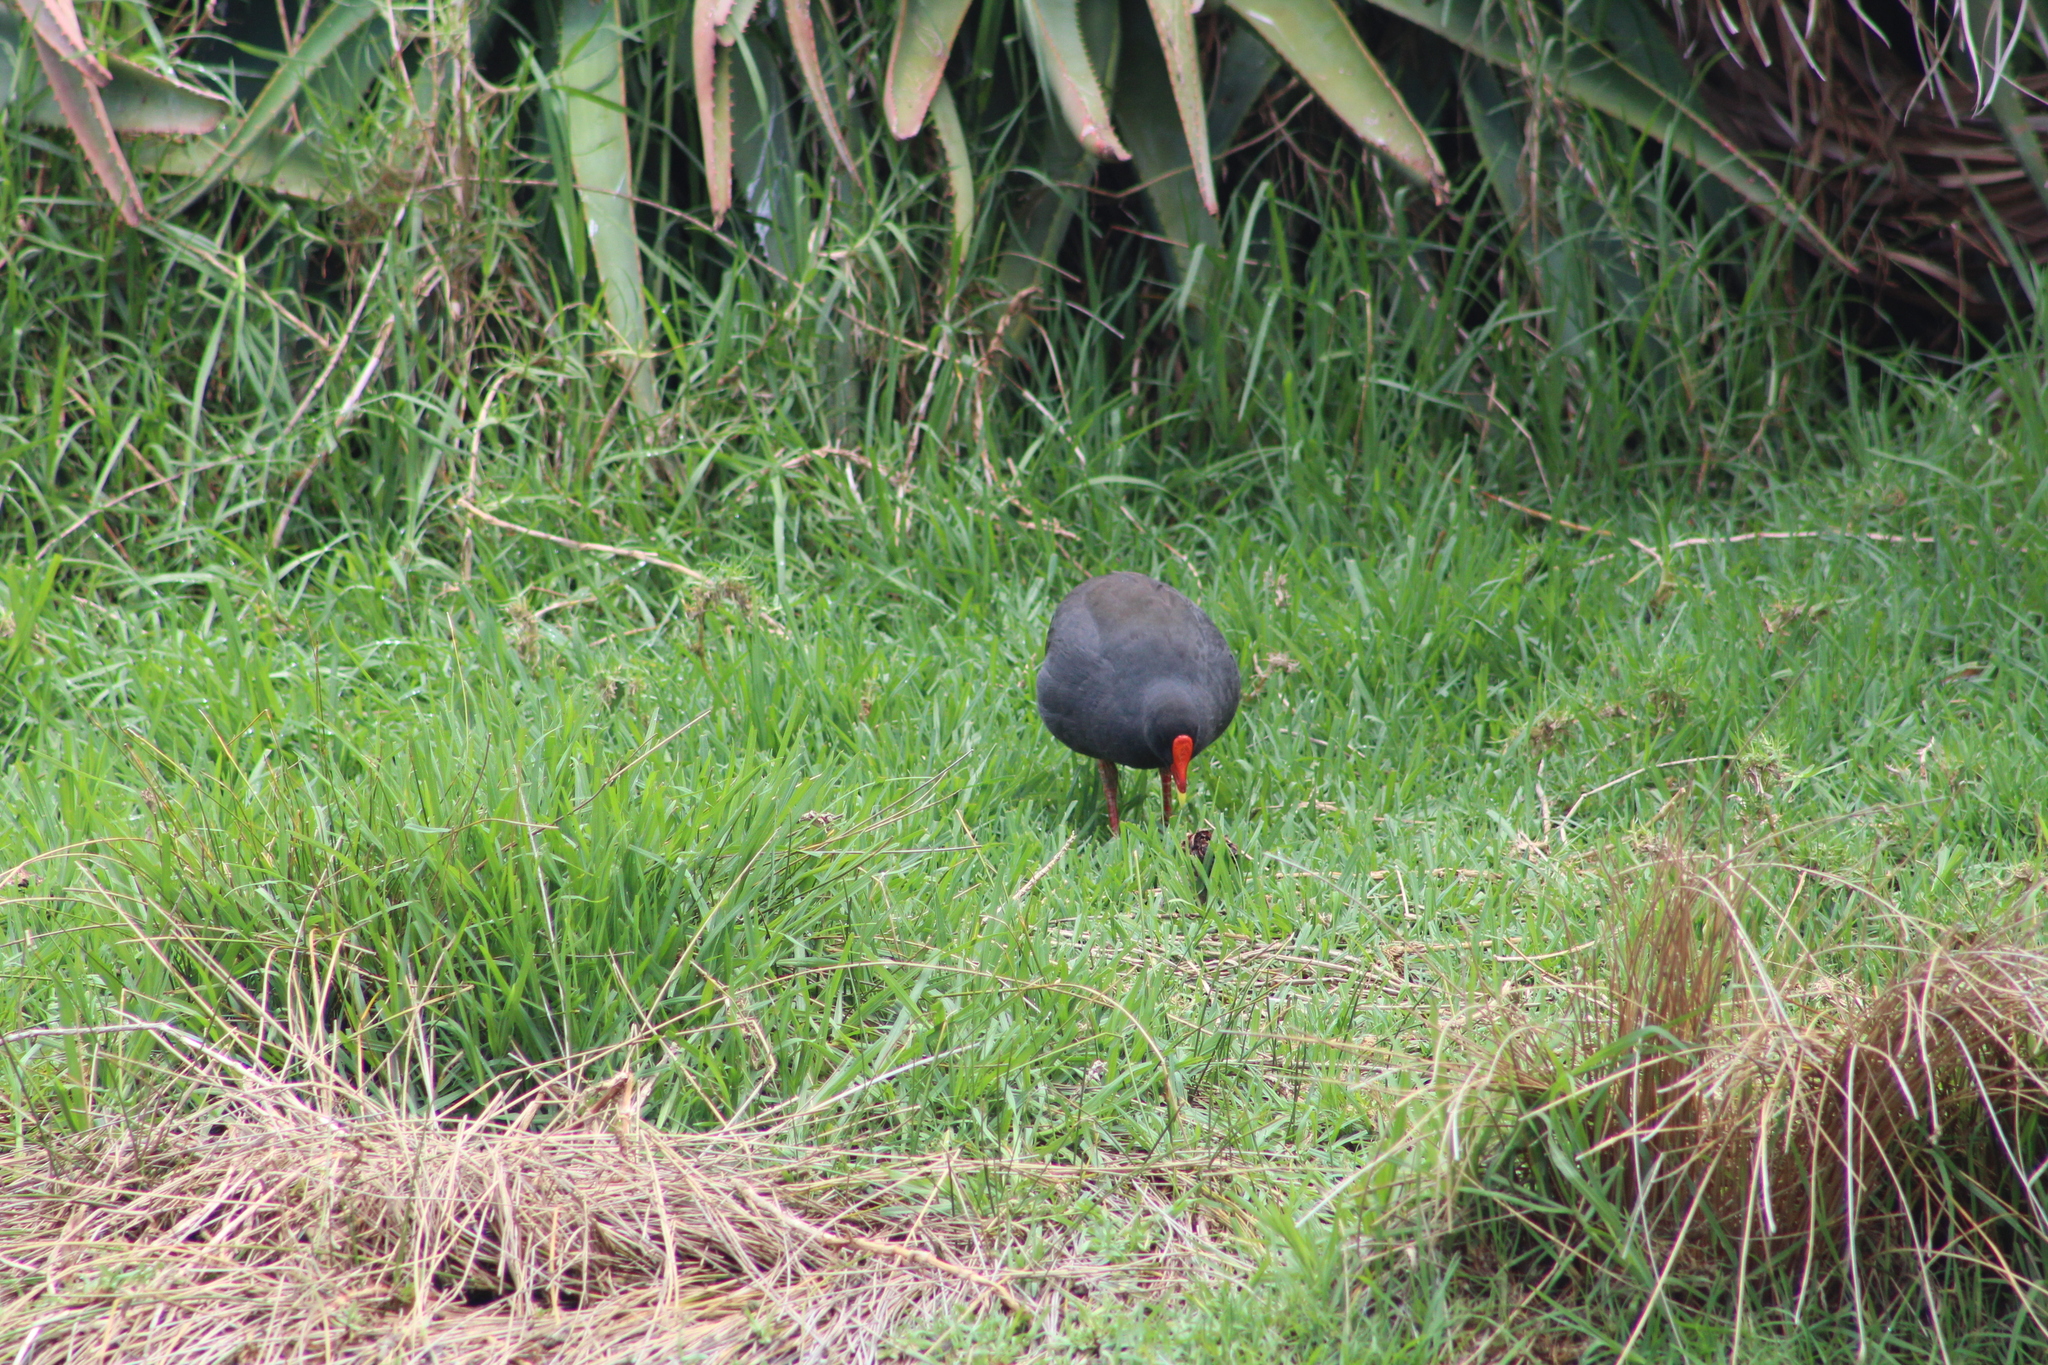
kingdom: Animalia
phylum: Chordata
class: Aves
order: Gruiformes
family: Rallidae
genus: Gallinula
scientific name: Gallinula tenebrosa
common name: Dusky moorhen
